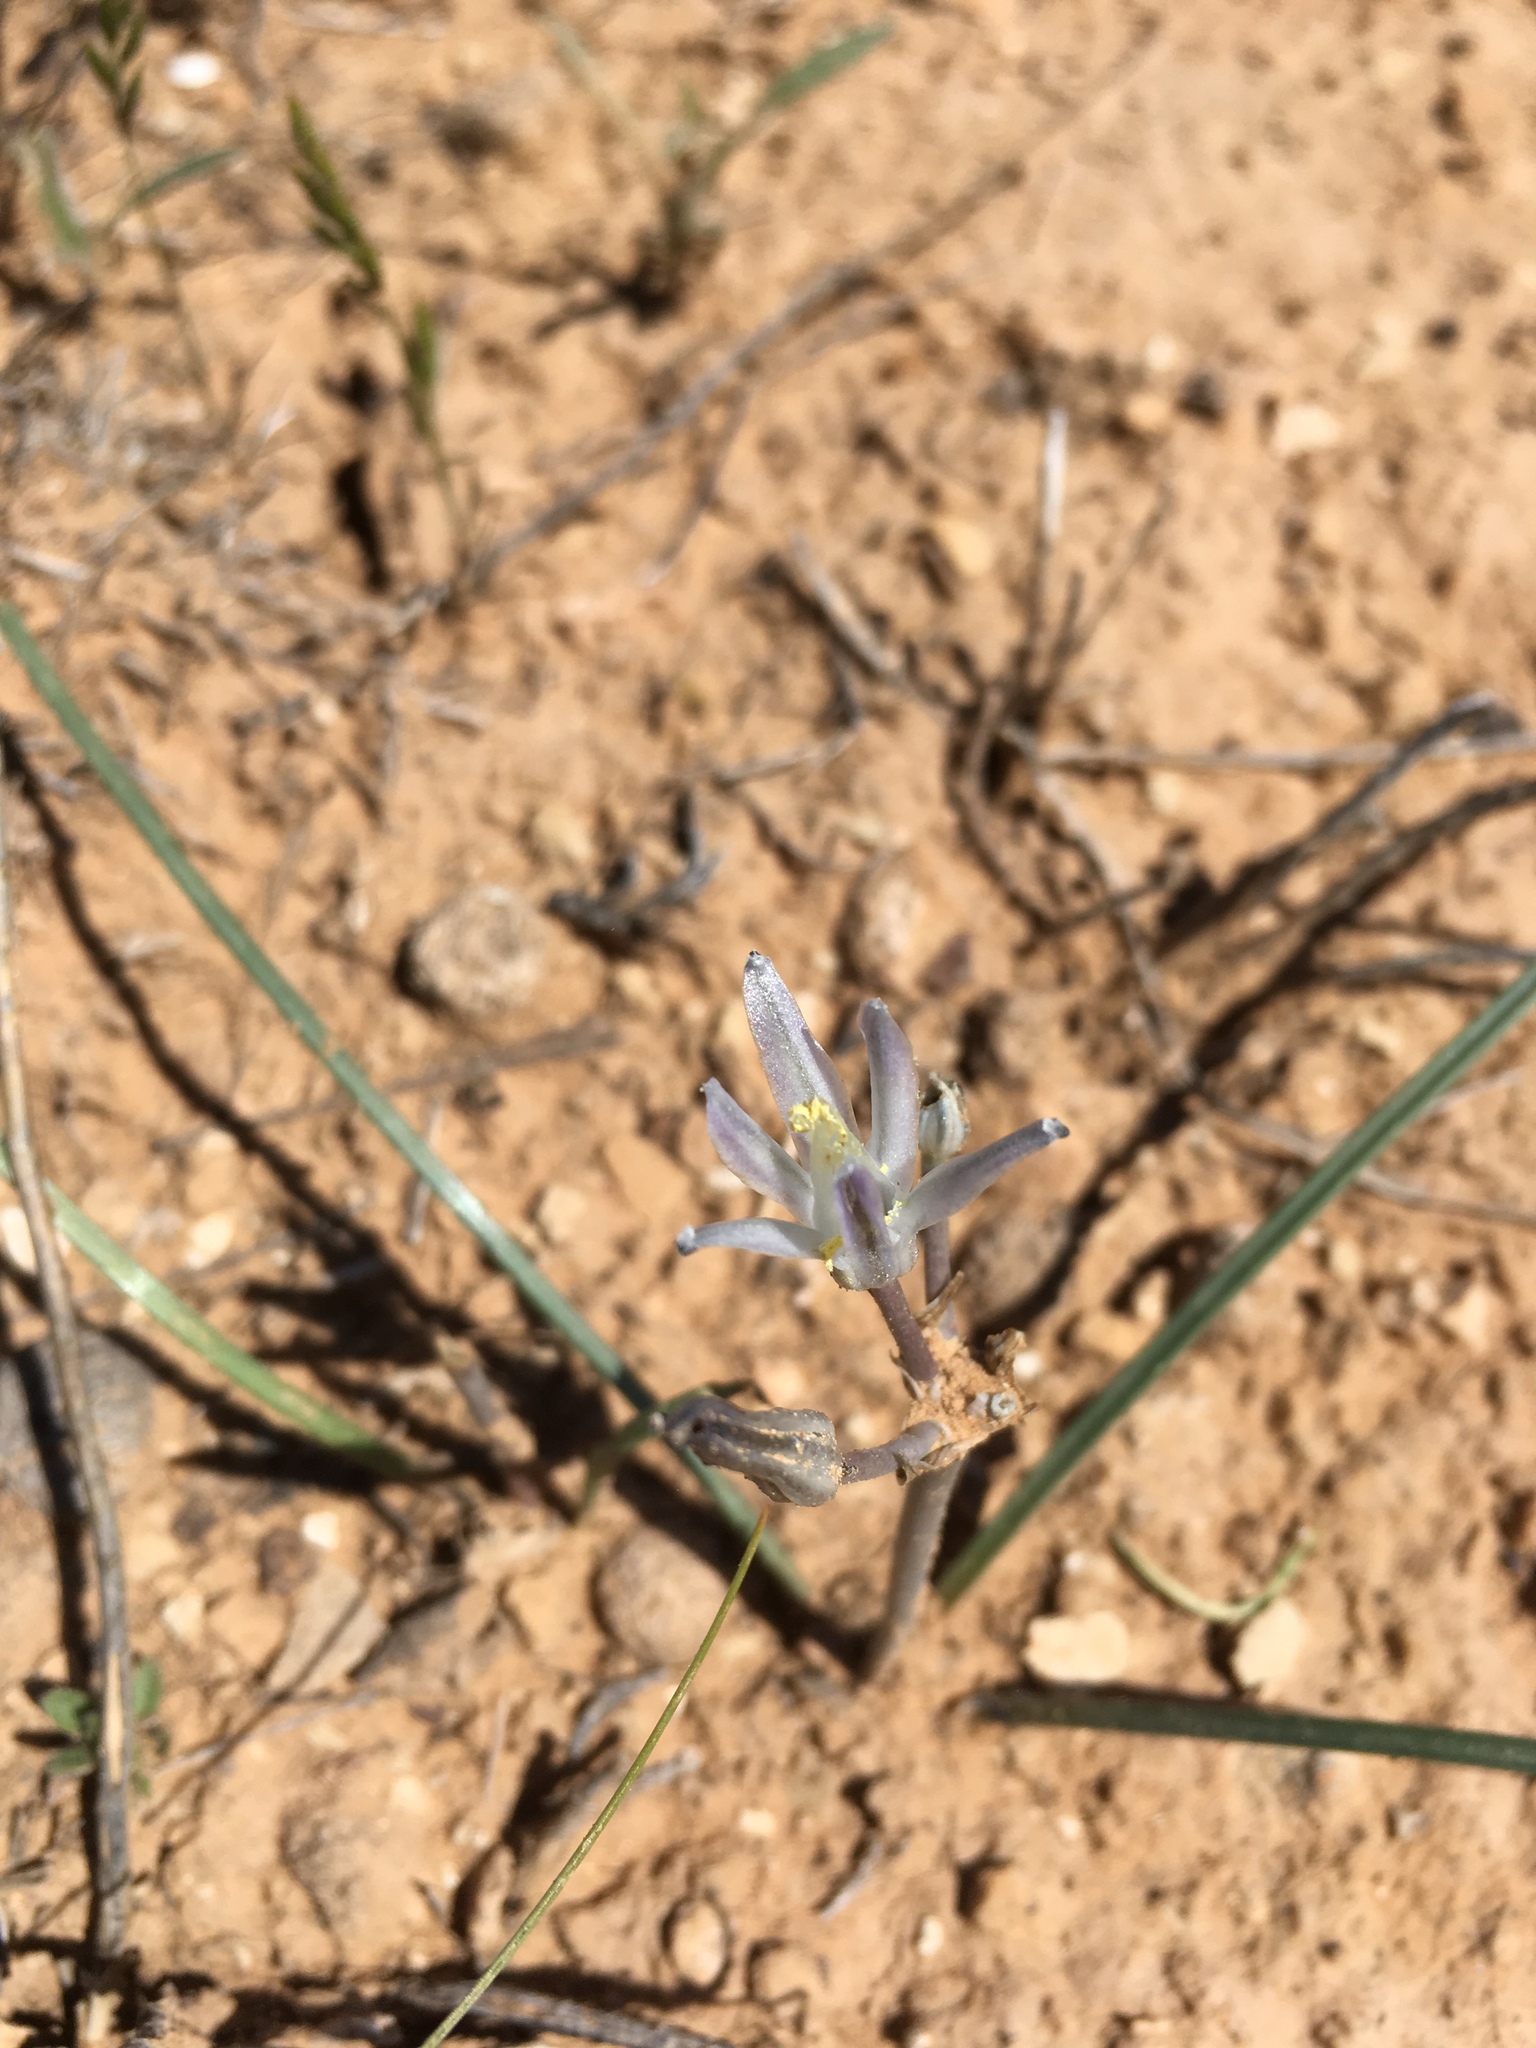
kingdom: Plantae
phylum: Tracheophyta
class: Liliopsida
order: Asparagales
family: Asparagaceae
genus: Androstephium
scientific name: Androstephium breviflorum
